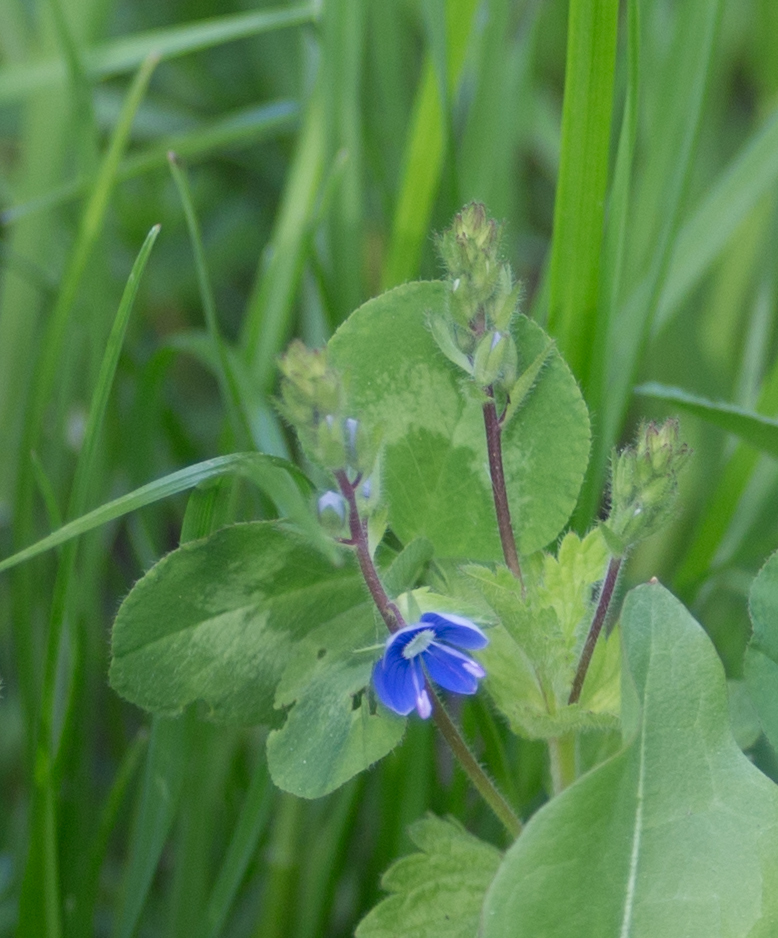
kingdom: Plantae
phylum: Tracheophyta
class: Magnoliopsida
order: Lamiales
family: Plantaginaceae
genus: Veronica
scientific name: Veronica chamaedrys
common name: Germander speedwell
